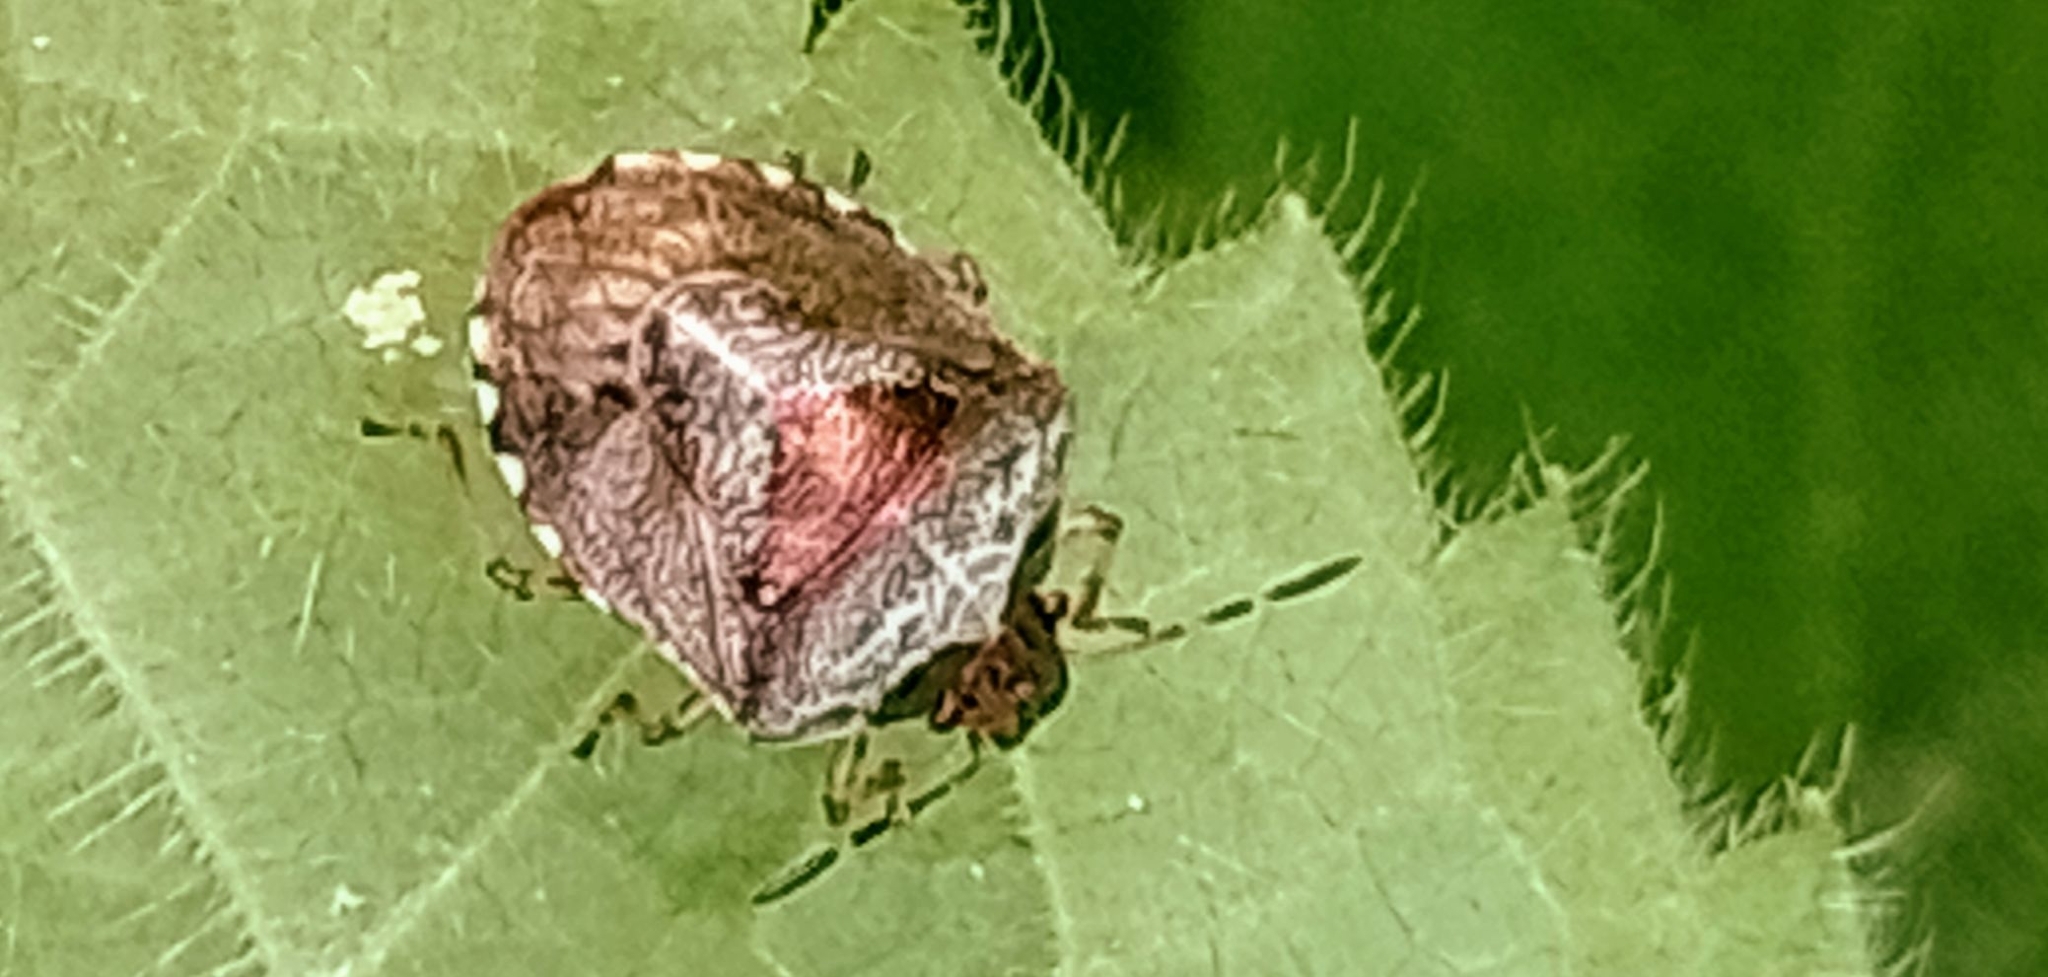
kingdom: Animalia
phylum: Arthropoda
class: Insecta
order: Hemiptera
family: Pentatomidae
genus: Eysarcoris
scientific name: Eysarcoris venustissimus
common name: Woundwort shieldbug
